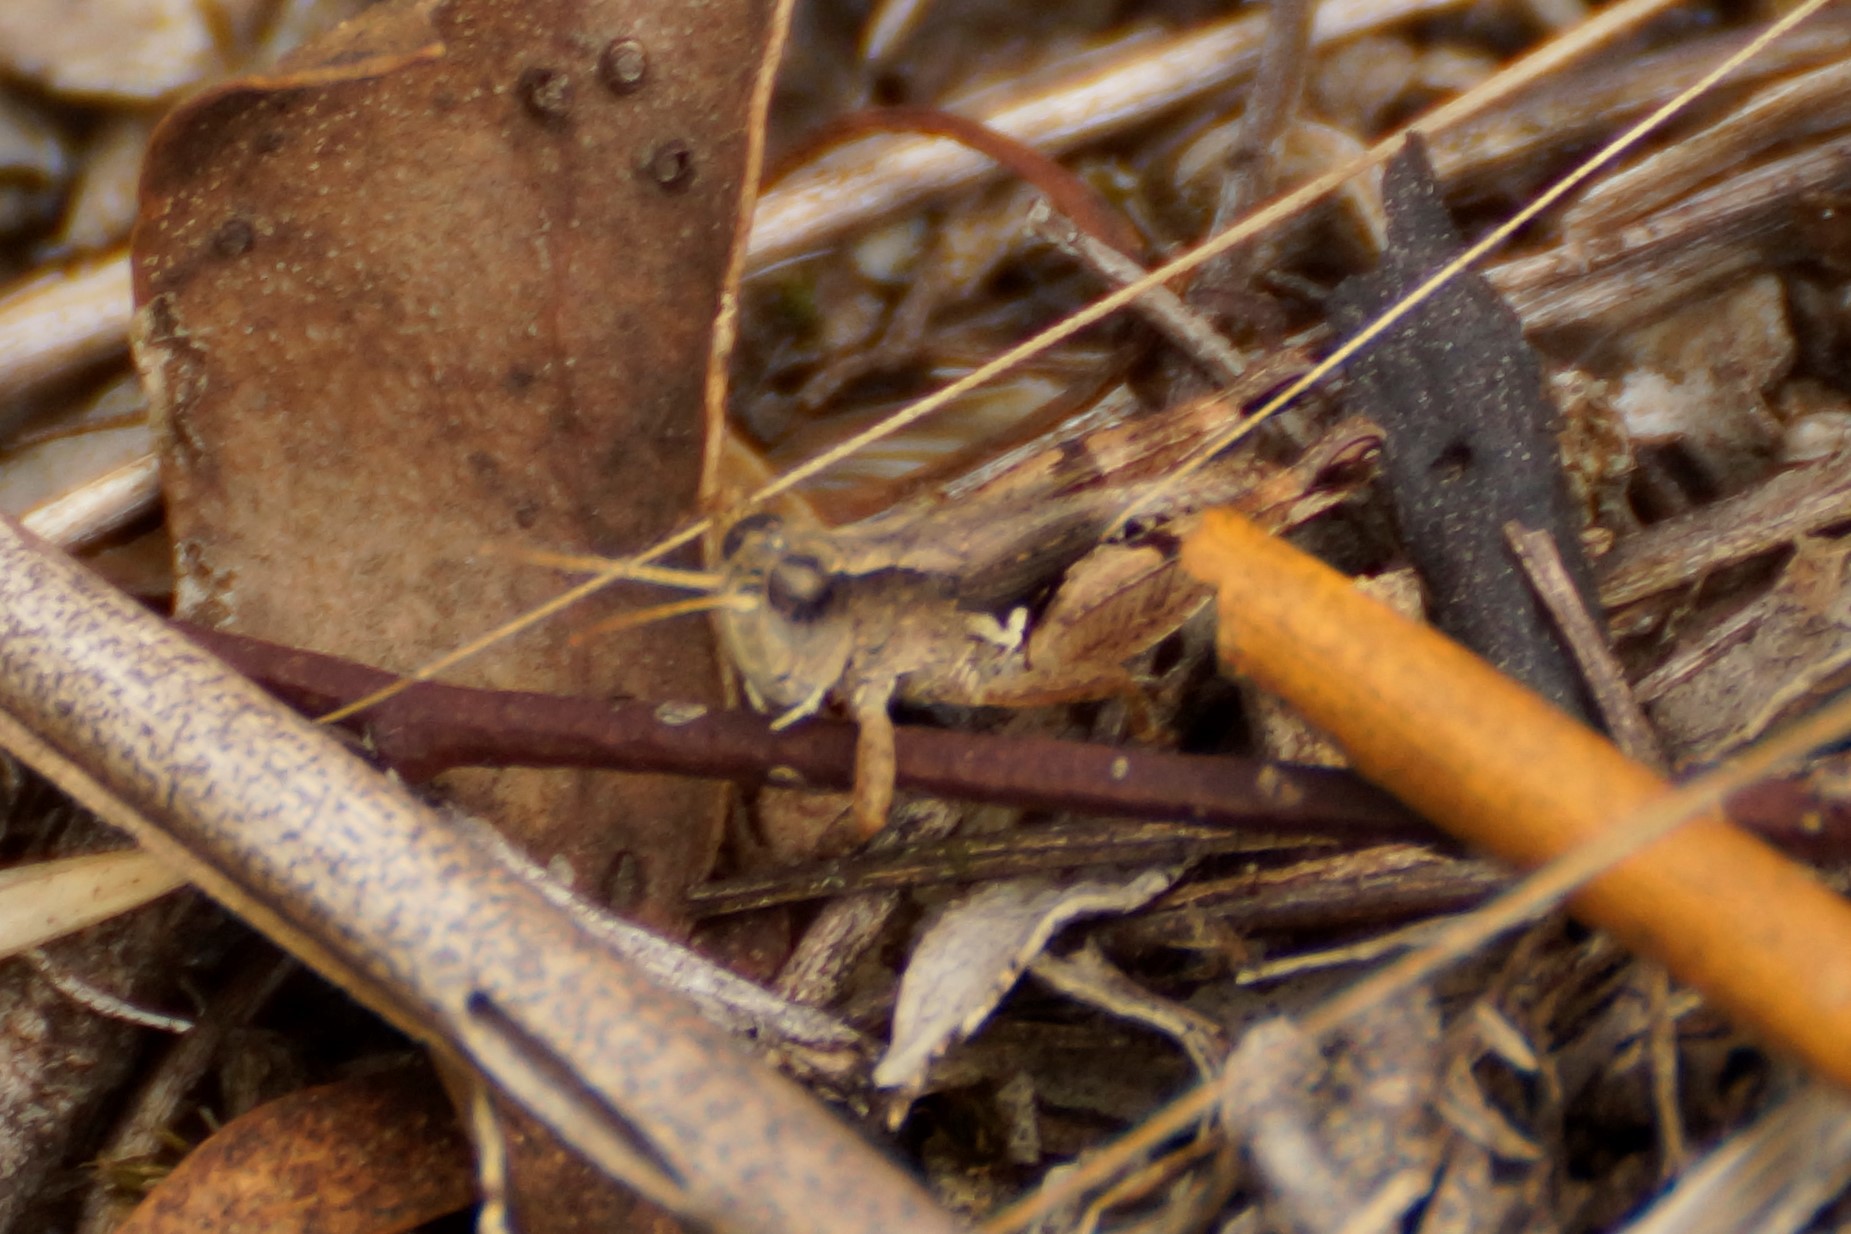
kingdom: Animalia
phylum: Arthropoda
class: Insecta
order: Orthoptera
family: Acrididae
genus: Phaulacridium
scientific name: Phaulacridium vittatum
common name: Wingless grasshopper
